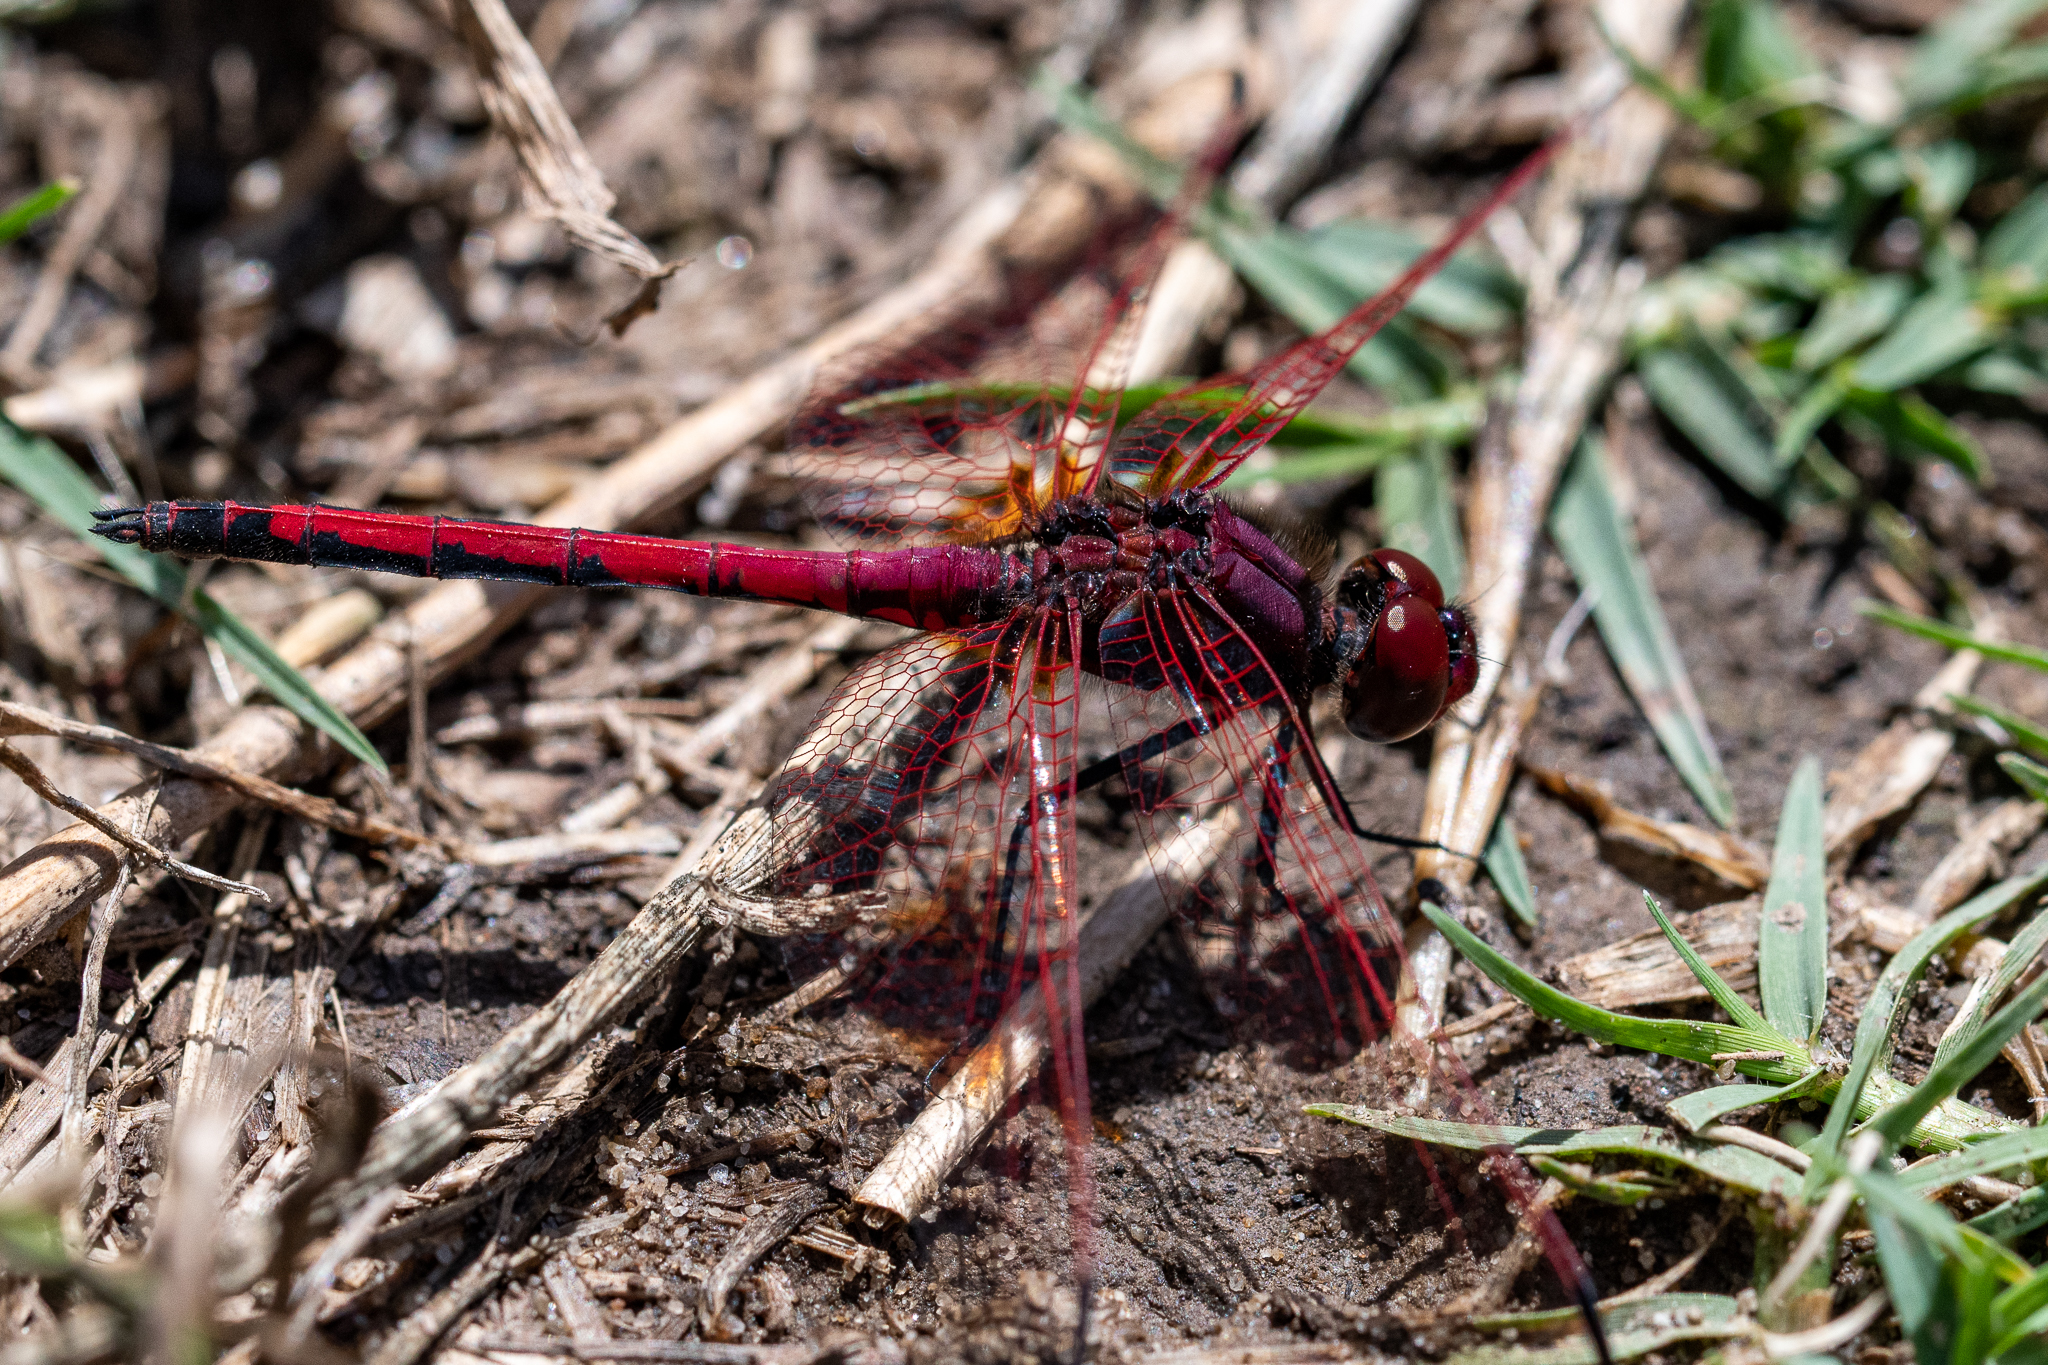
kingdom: Animalia
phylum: Arthropoda
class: Insecta
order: Odonata
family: Libellulidae
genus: Trithemis
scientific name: Trithemis arteriosa
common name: Red-veined dropwing
